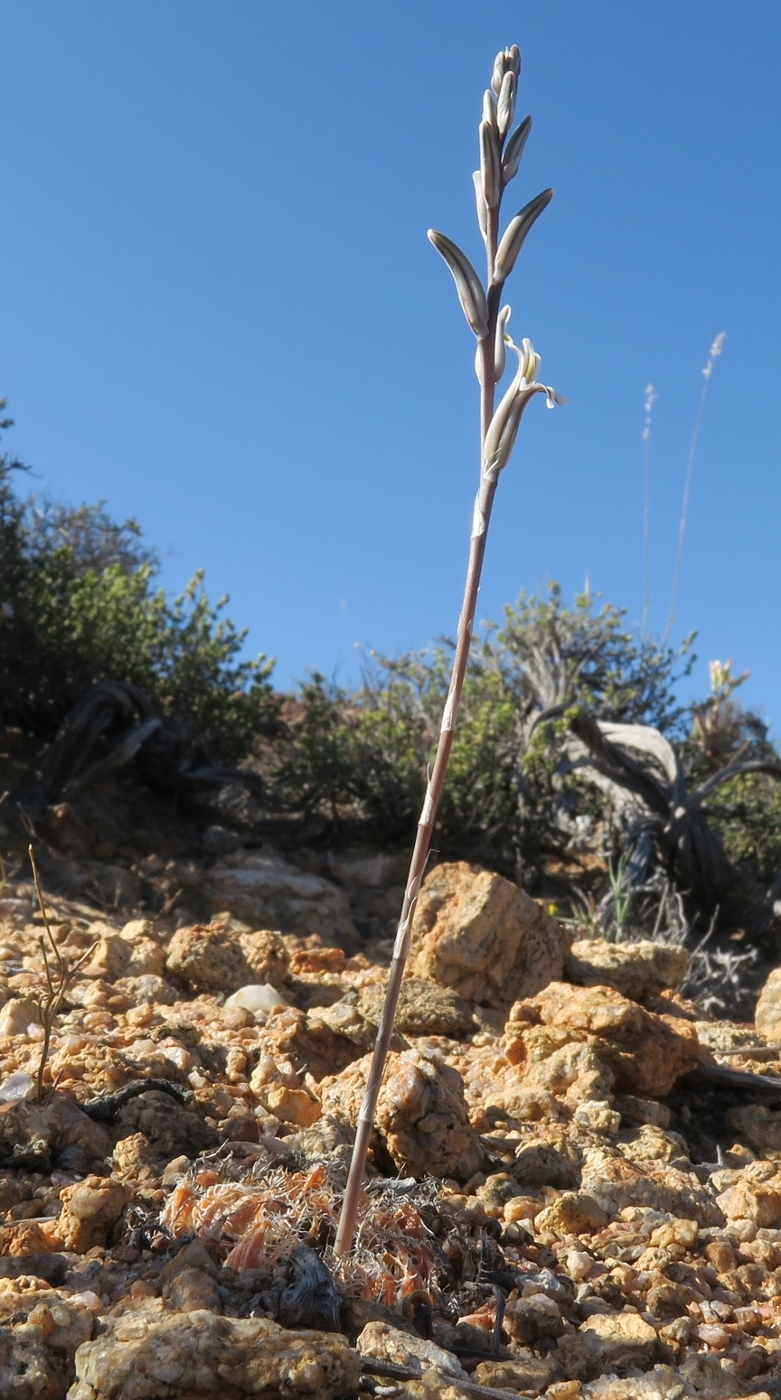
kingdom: Plantae
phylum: Tracheophyta
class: Liliopsida
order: Asparagales
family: Asphodelaceae
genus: Haworthia
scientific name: Haworthia arachnoidea
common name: Cobweb-aloe
